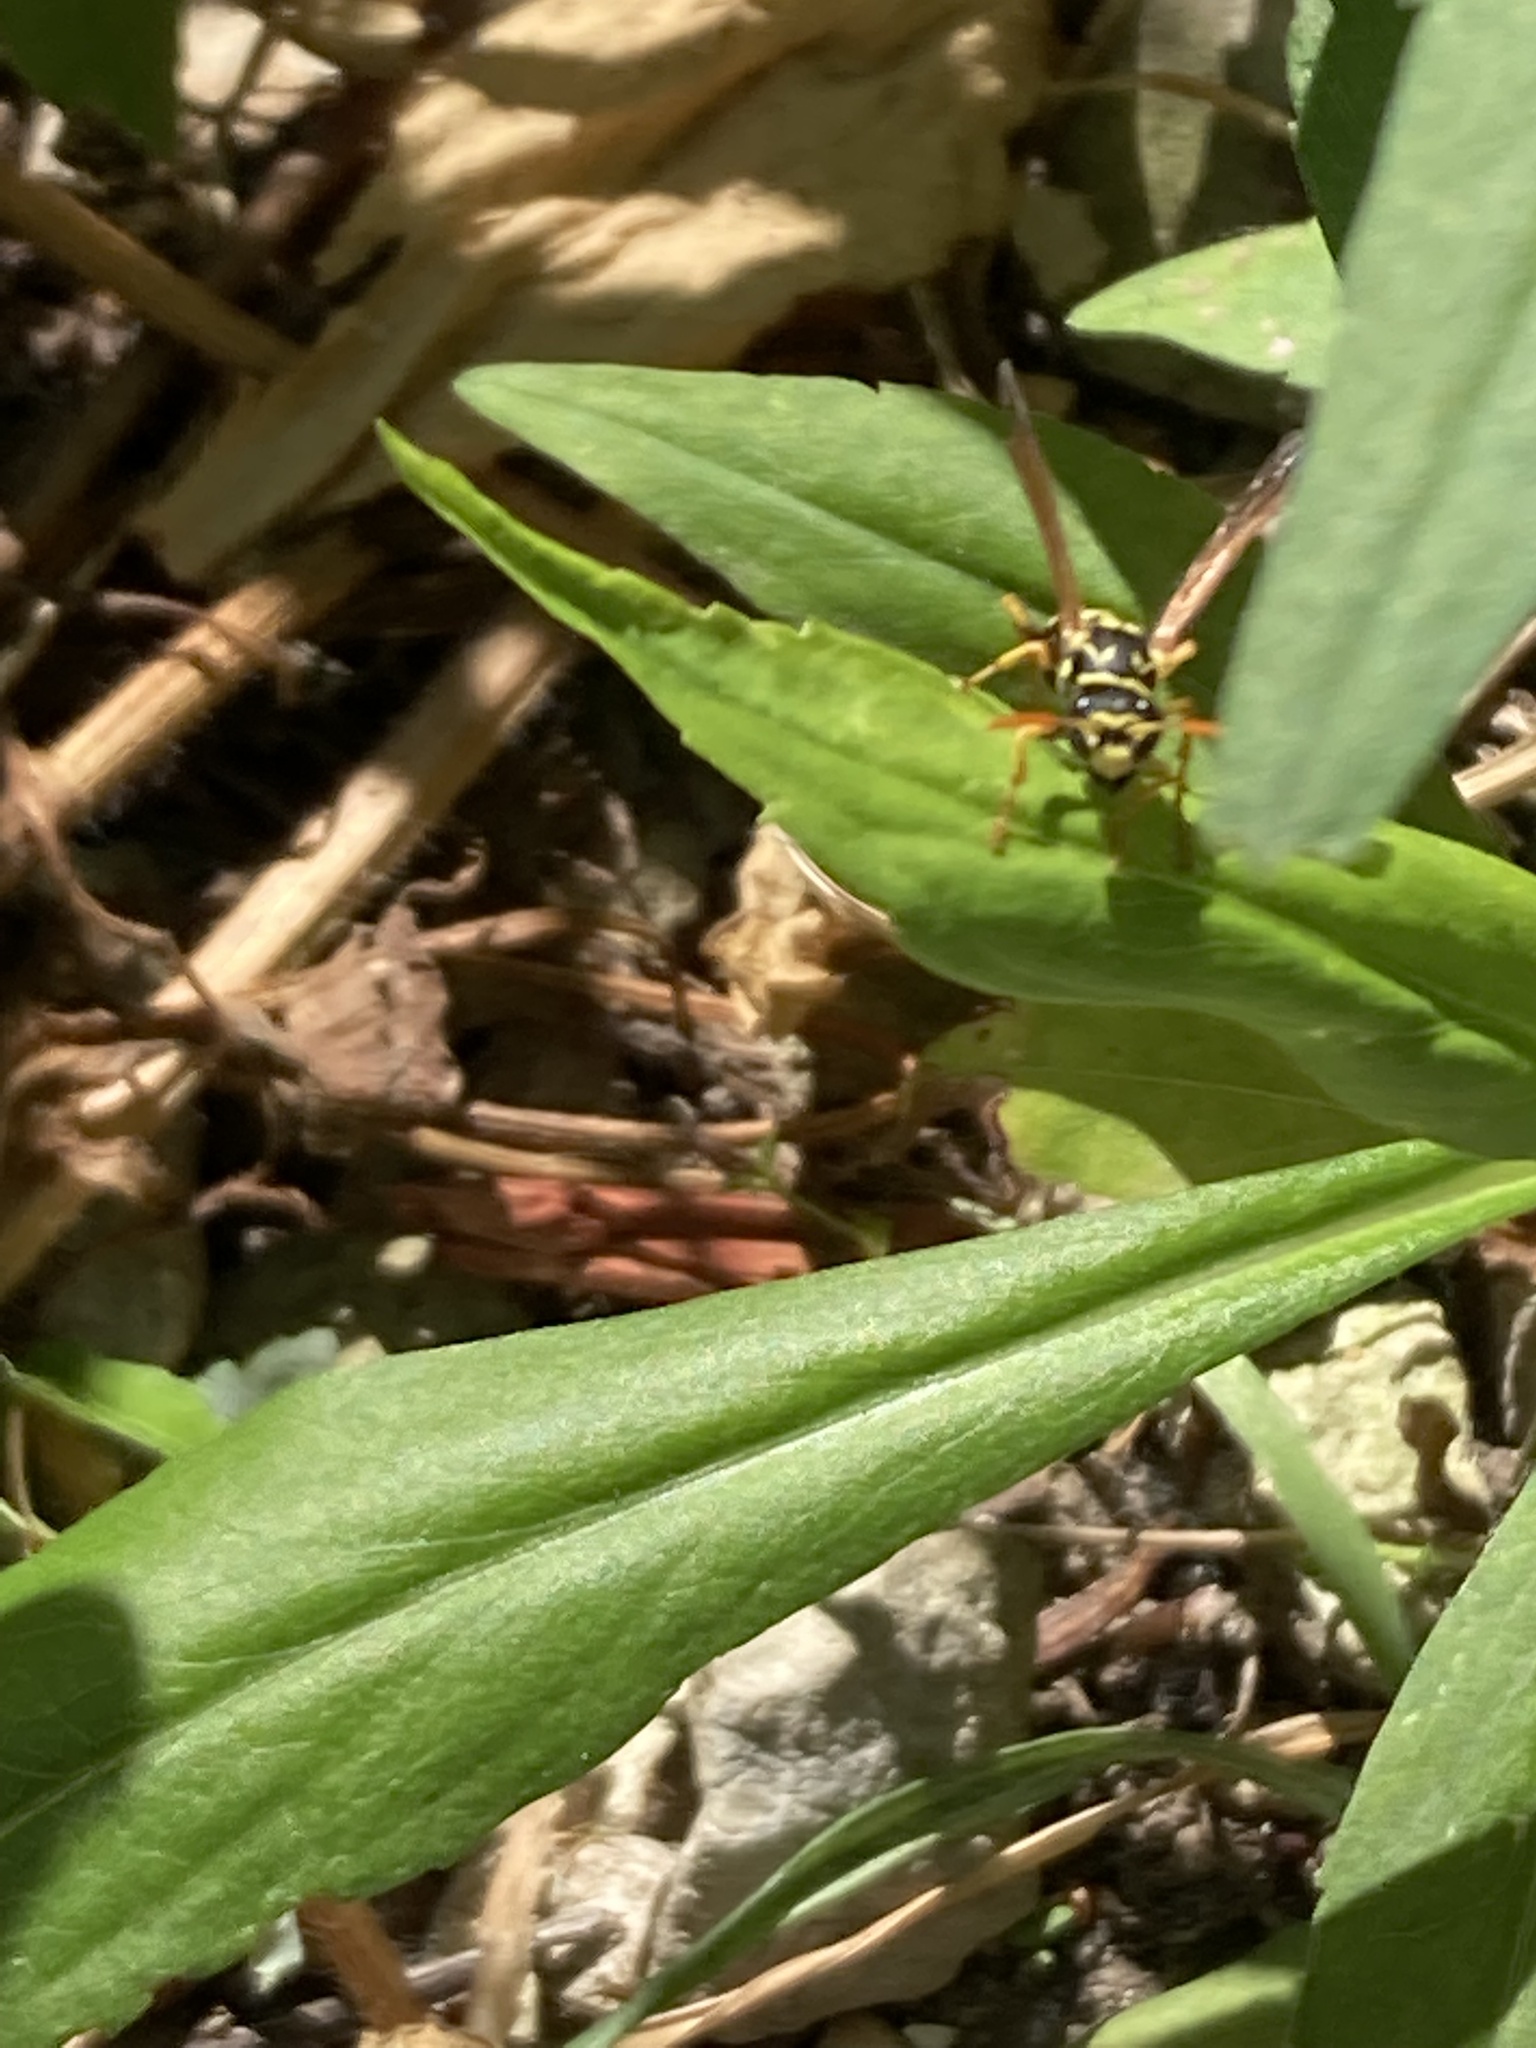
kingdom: Animalia
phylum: Arthropoda
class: Insecta
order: Hymenoptera
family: Eumenidae
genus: Polistes
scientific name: Polistes dominula
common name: Paper wasp
